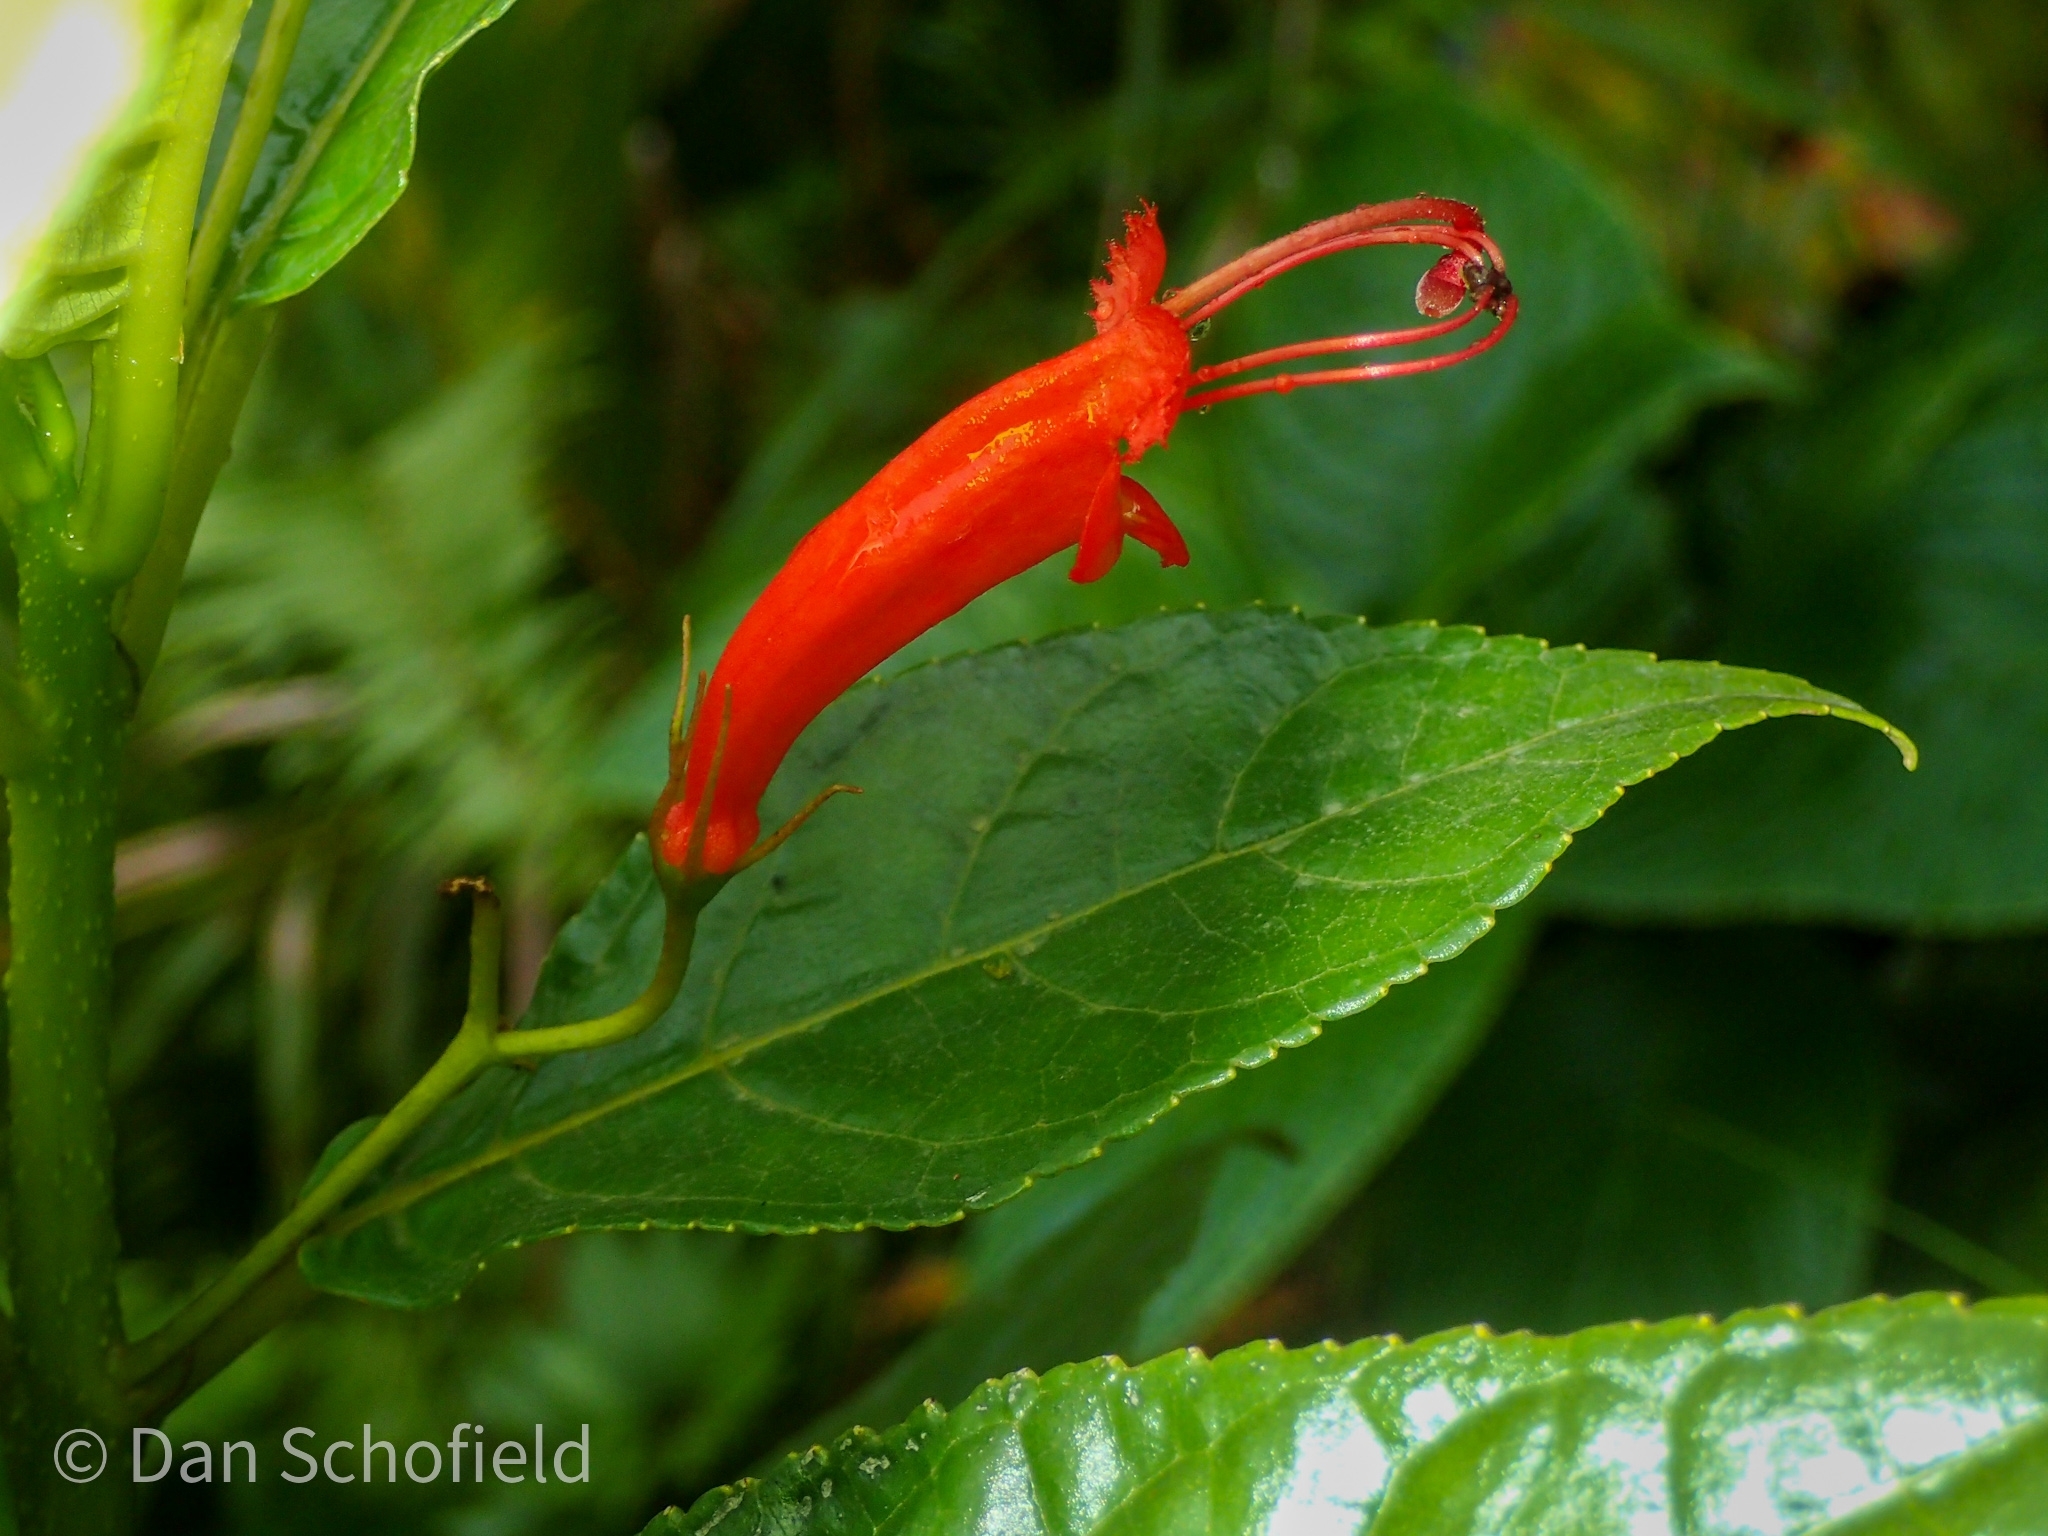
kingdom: Plantae
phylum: Tracheophyta
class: Magnoliopsida
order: Lamiales
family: Gesneriaceae
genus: Gesneria
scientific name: Gesneria ventricosa
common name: Dare meat
